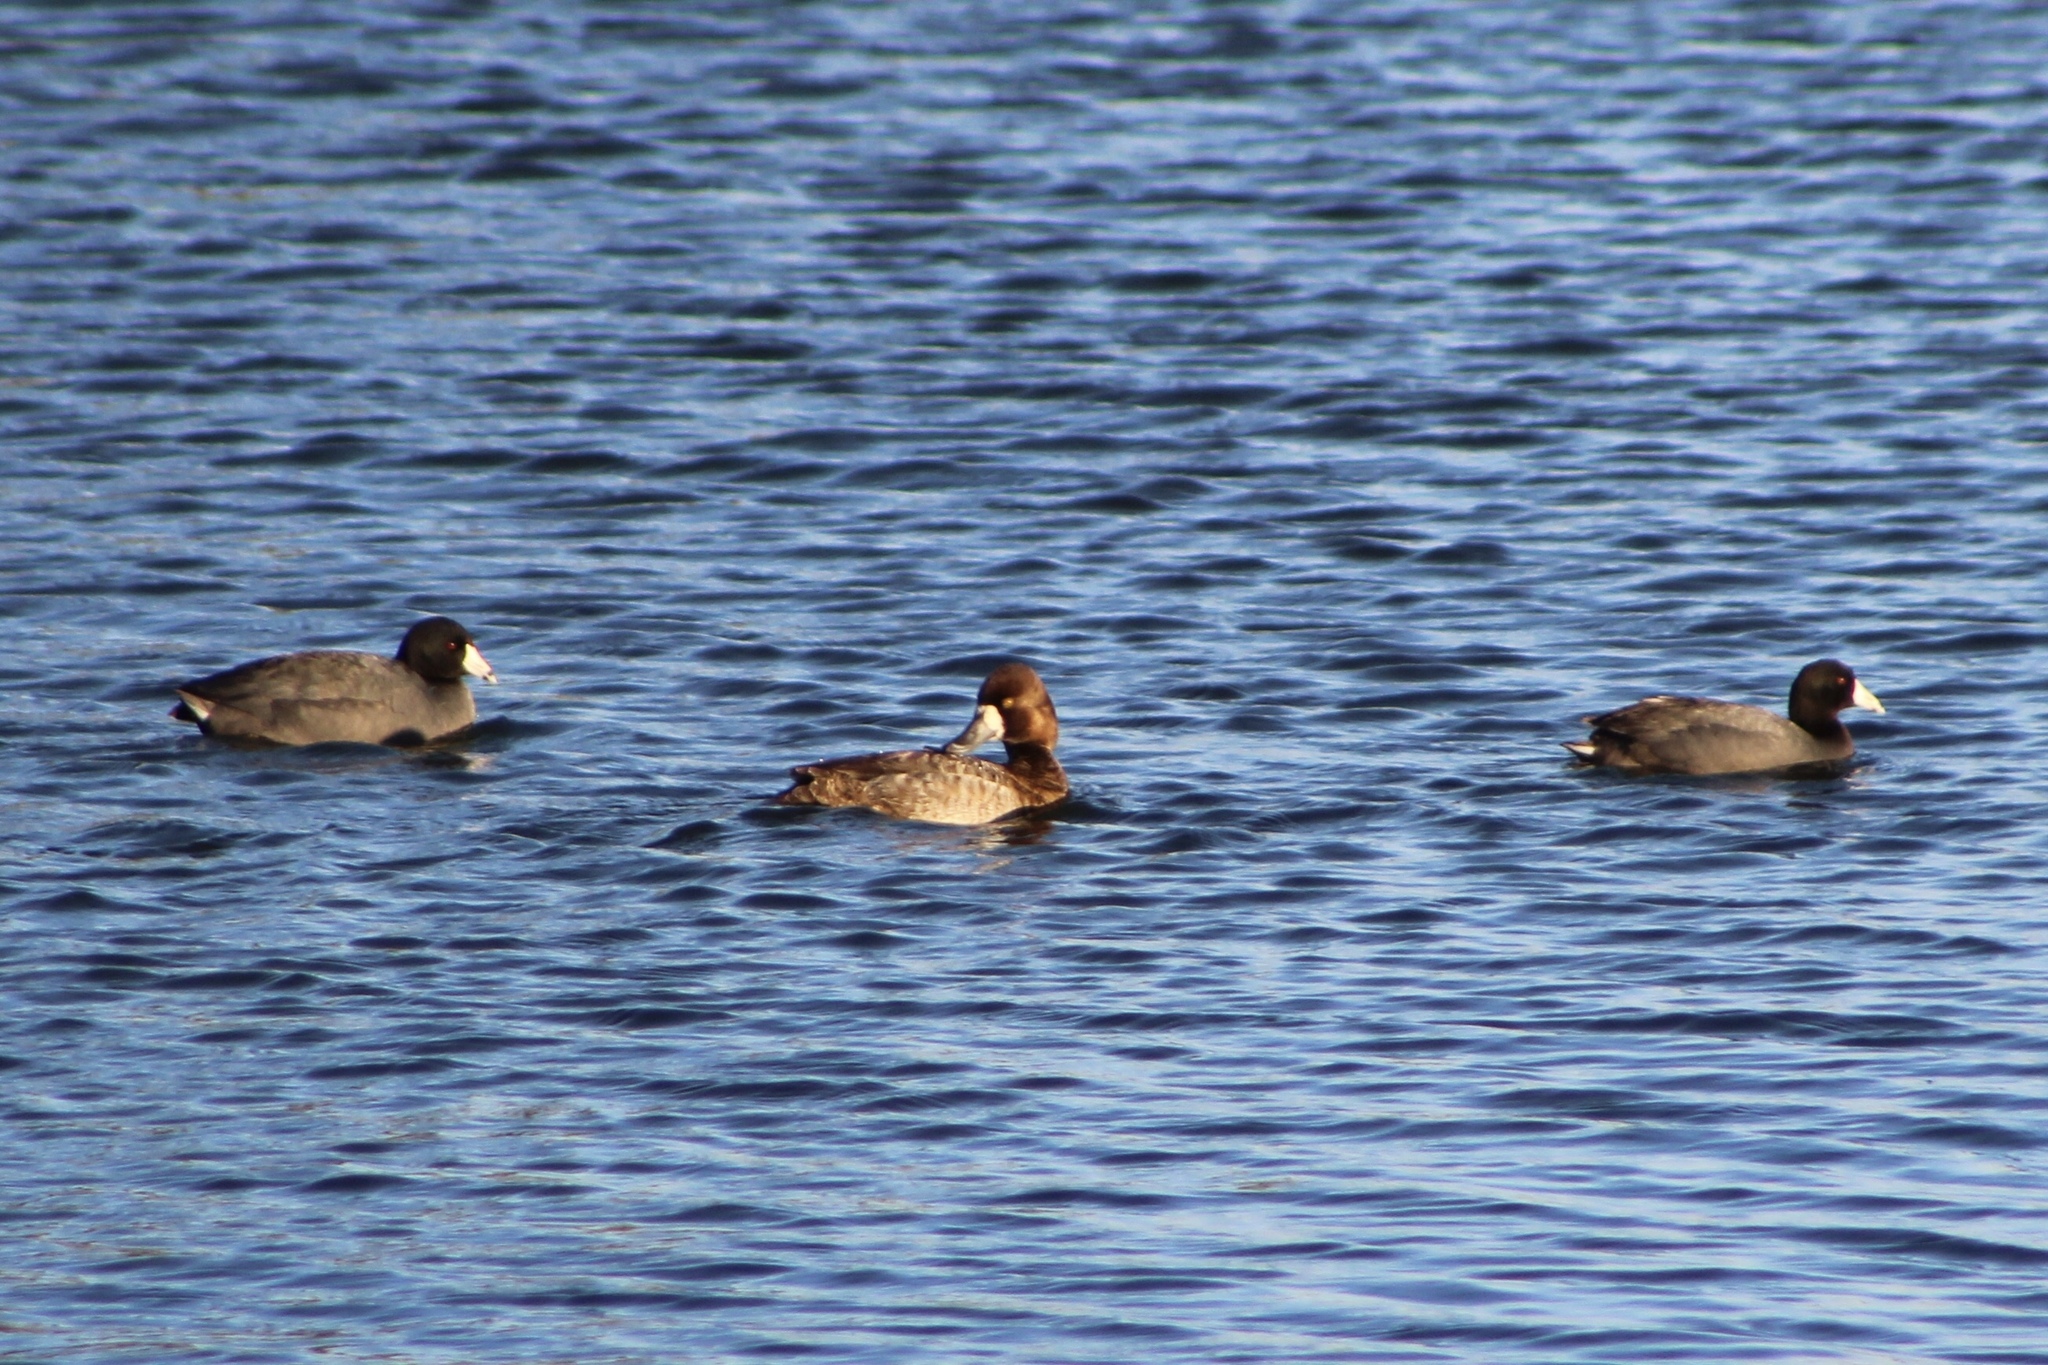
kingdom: Animalia
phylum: Chordata
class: Aves
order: Gruiformes
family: Rallidae
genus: Fulica
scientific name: Fulica americana
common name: American coot
